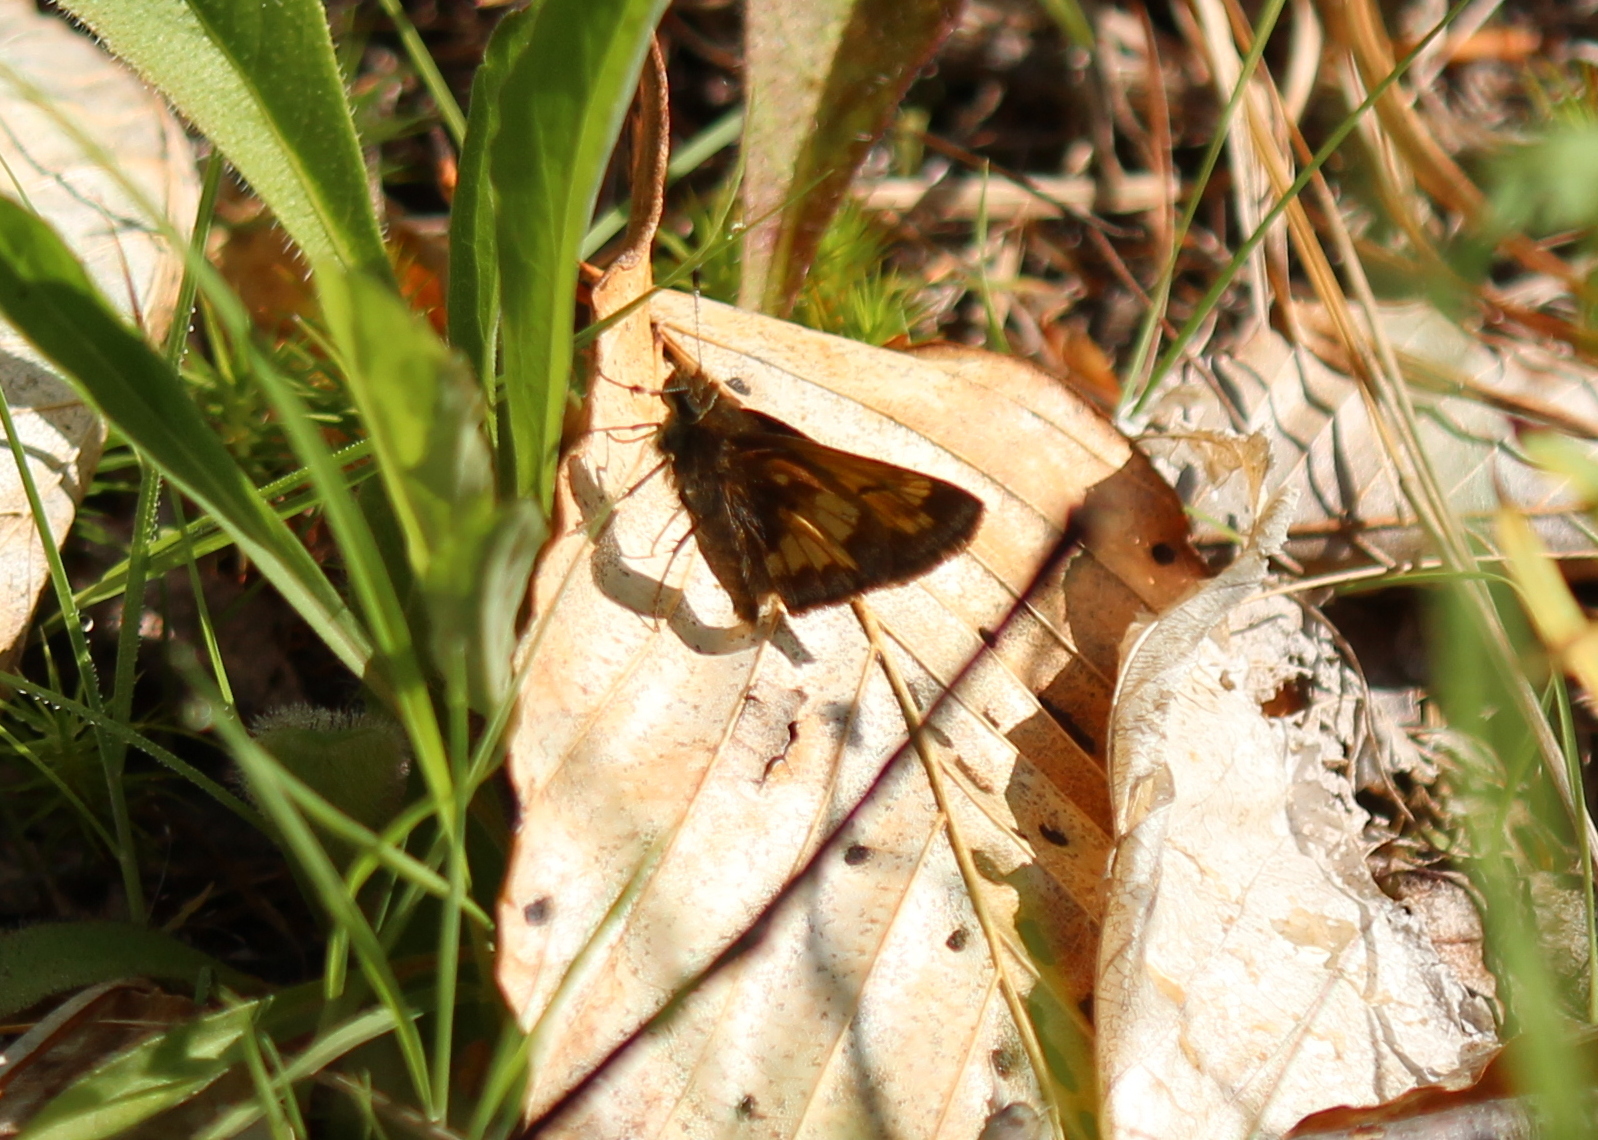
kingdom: Animalia
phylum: Arthropoda
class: Insecta
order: Lepidoptera
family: Hesperiidae
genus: Lon
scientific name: Lon hobomok
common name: Hobomok skipper
